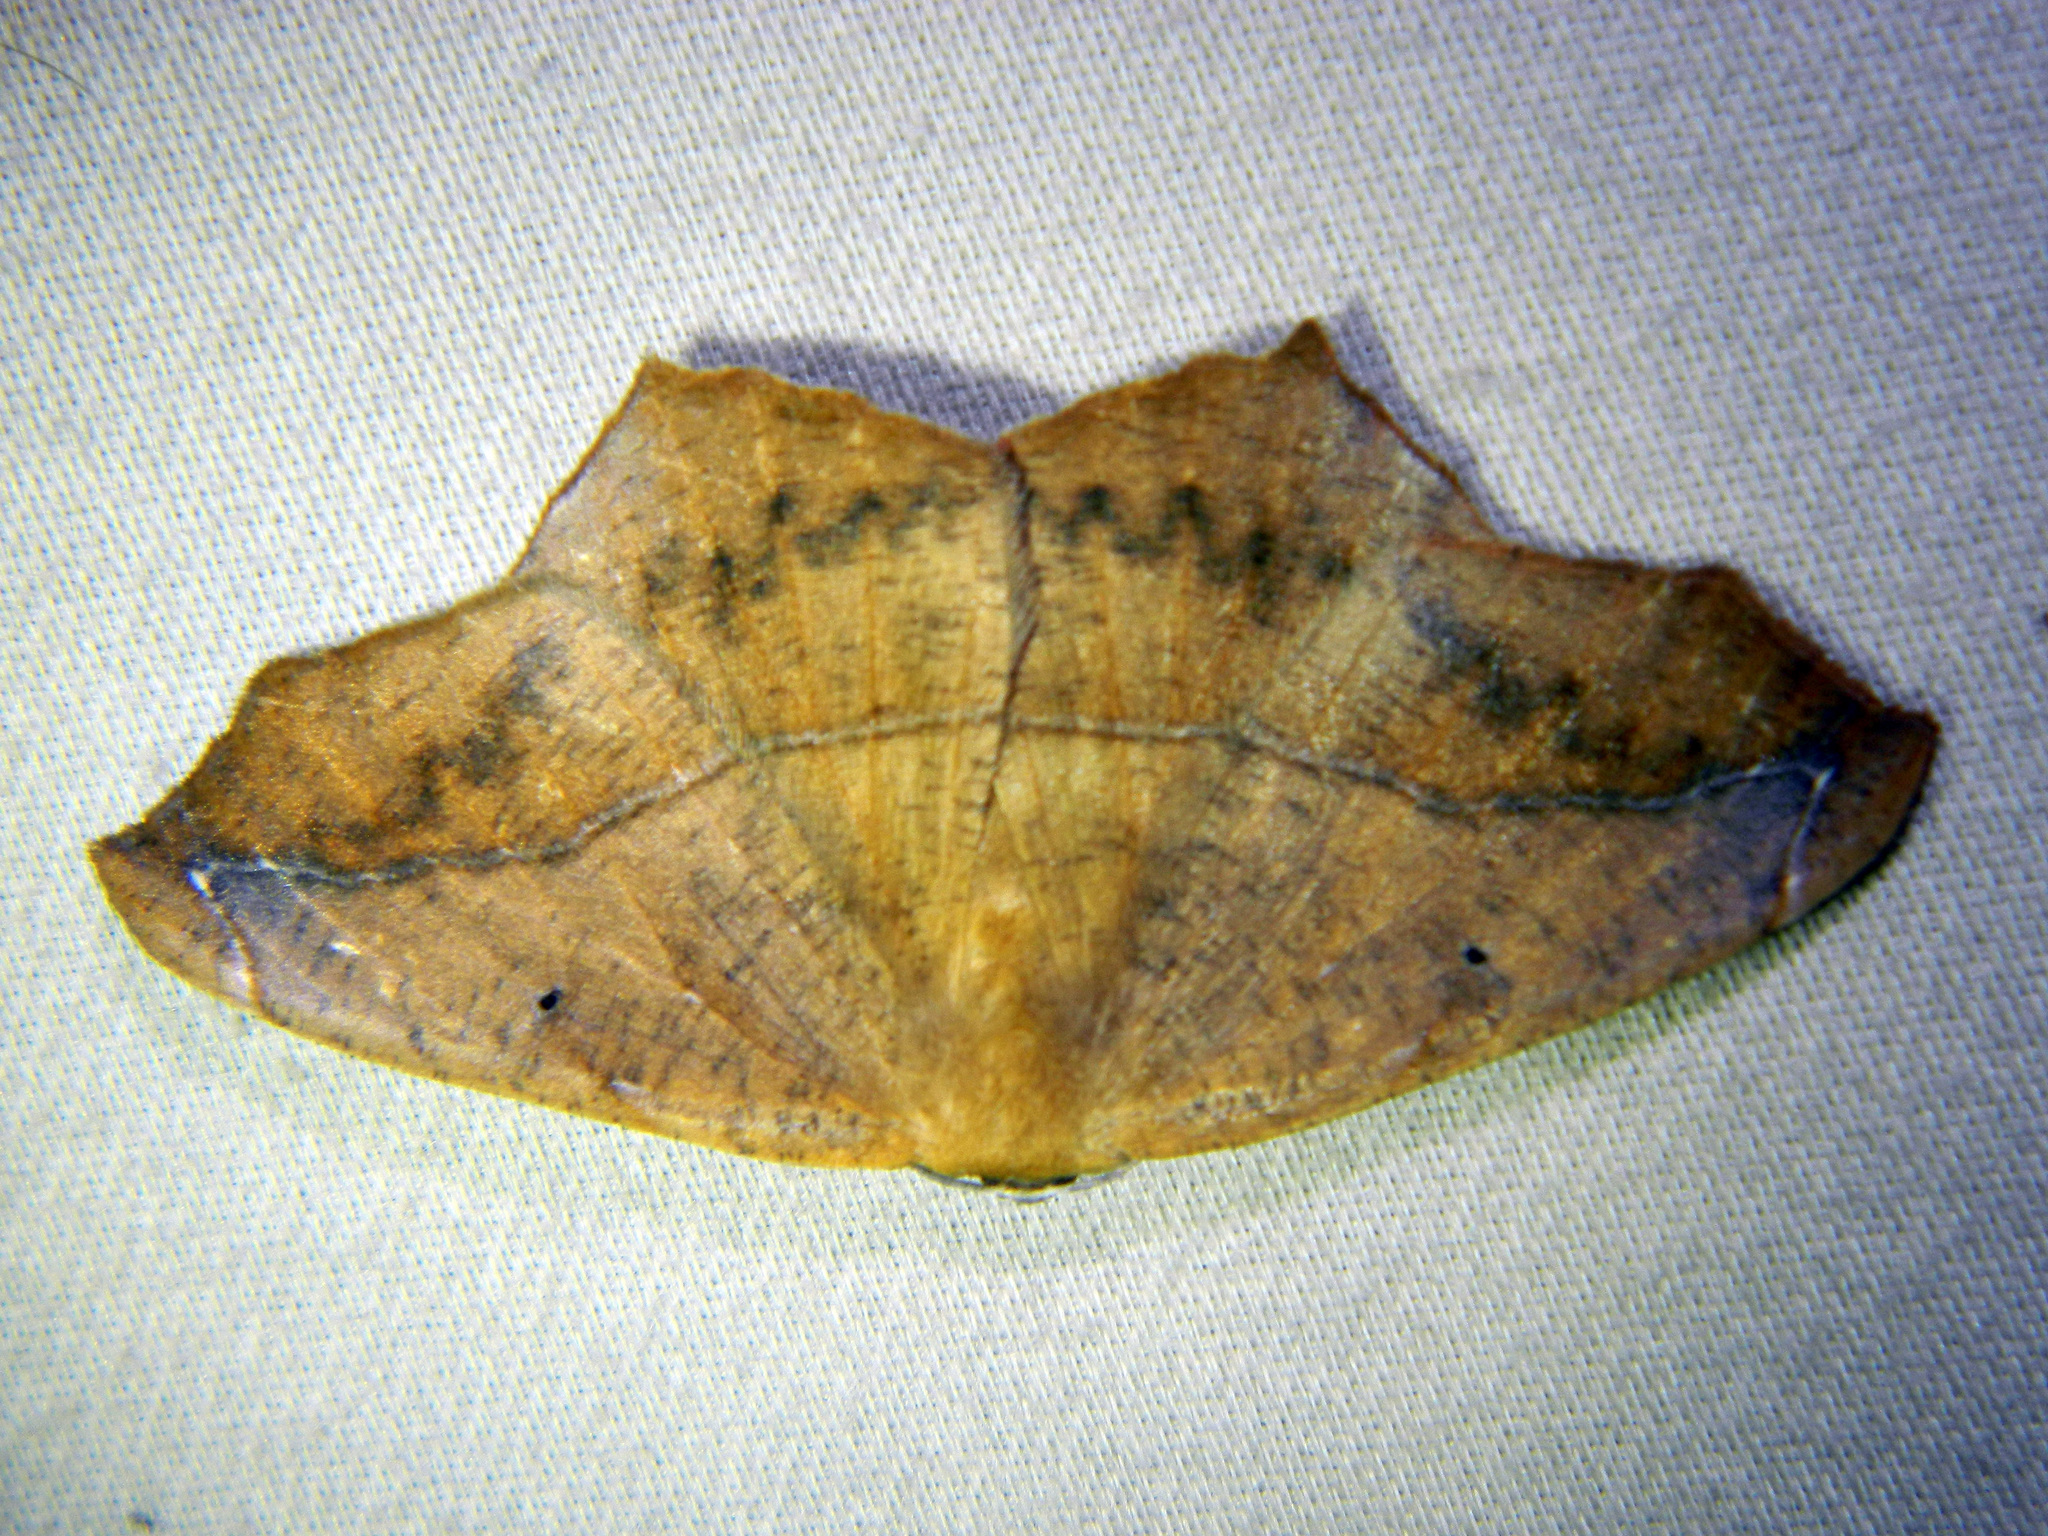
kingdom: Animalia
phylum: Arthropoda
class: Insecta
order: Lepidoptera
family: Geometridae
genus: Prochoerodes
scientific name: Prochoerodes lineola
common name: Large maple spanworm
